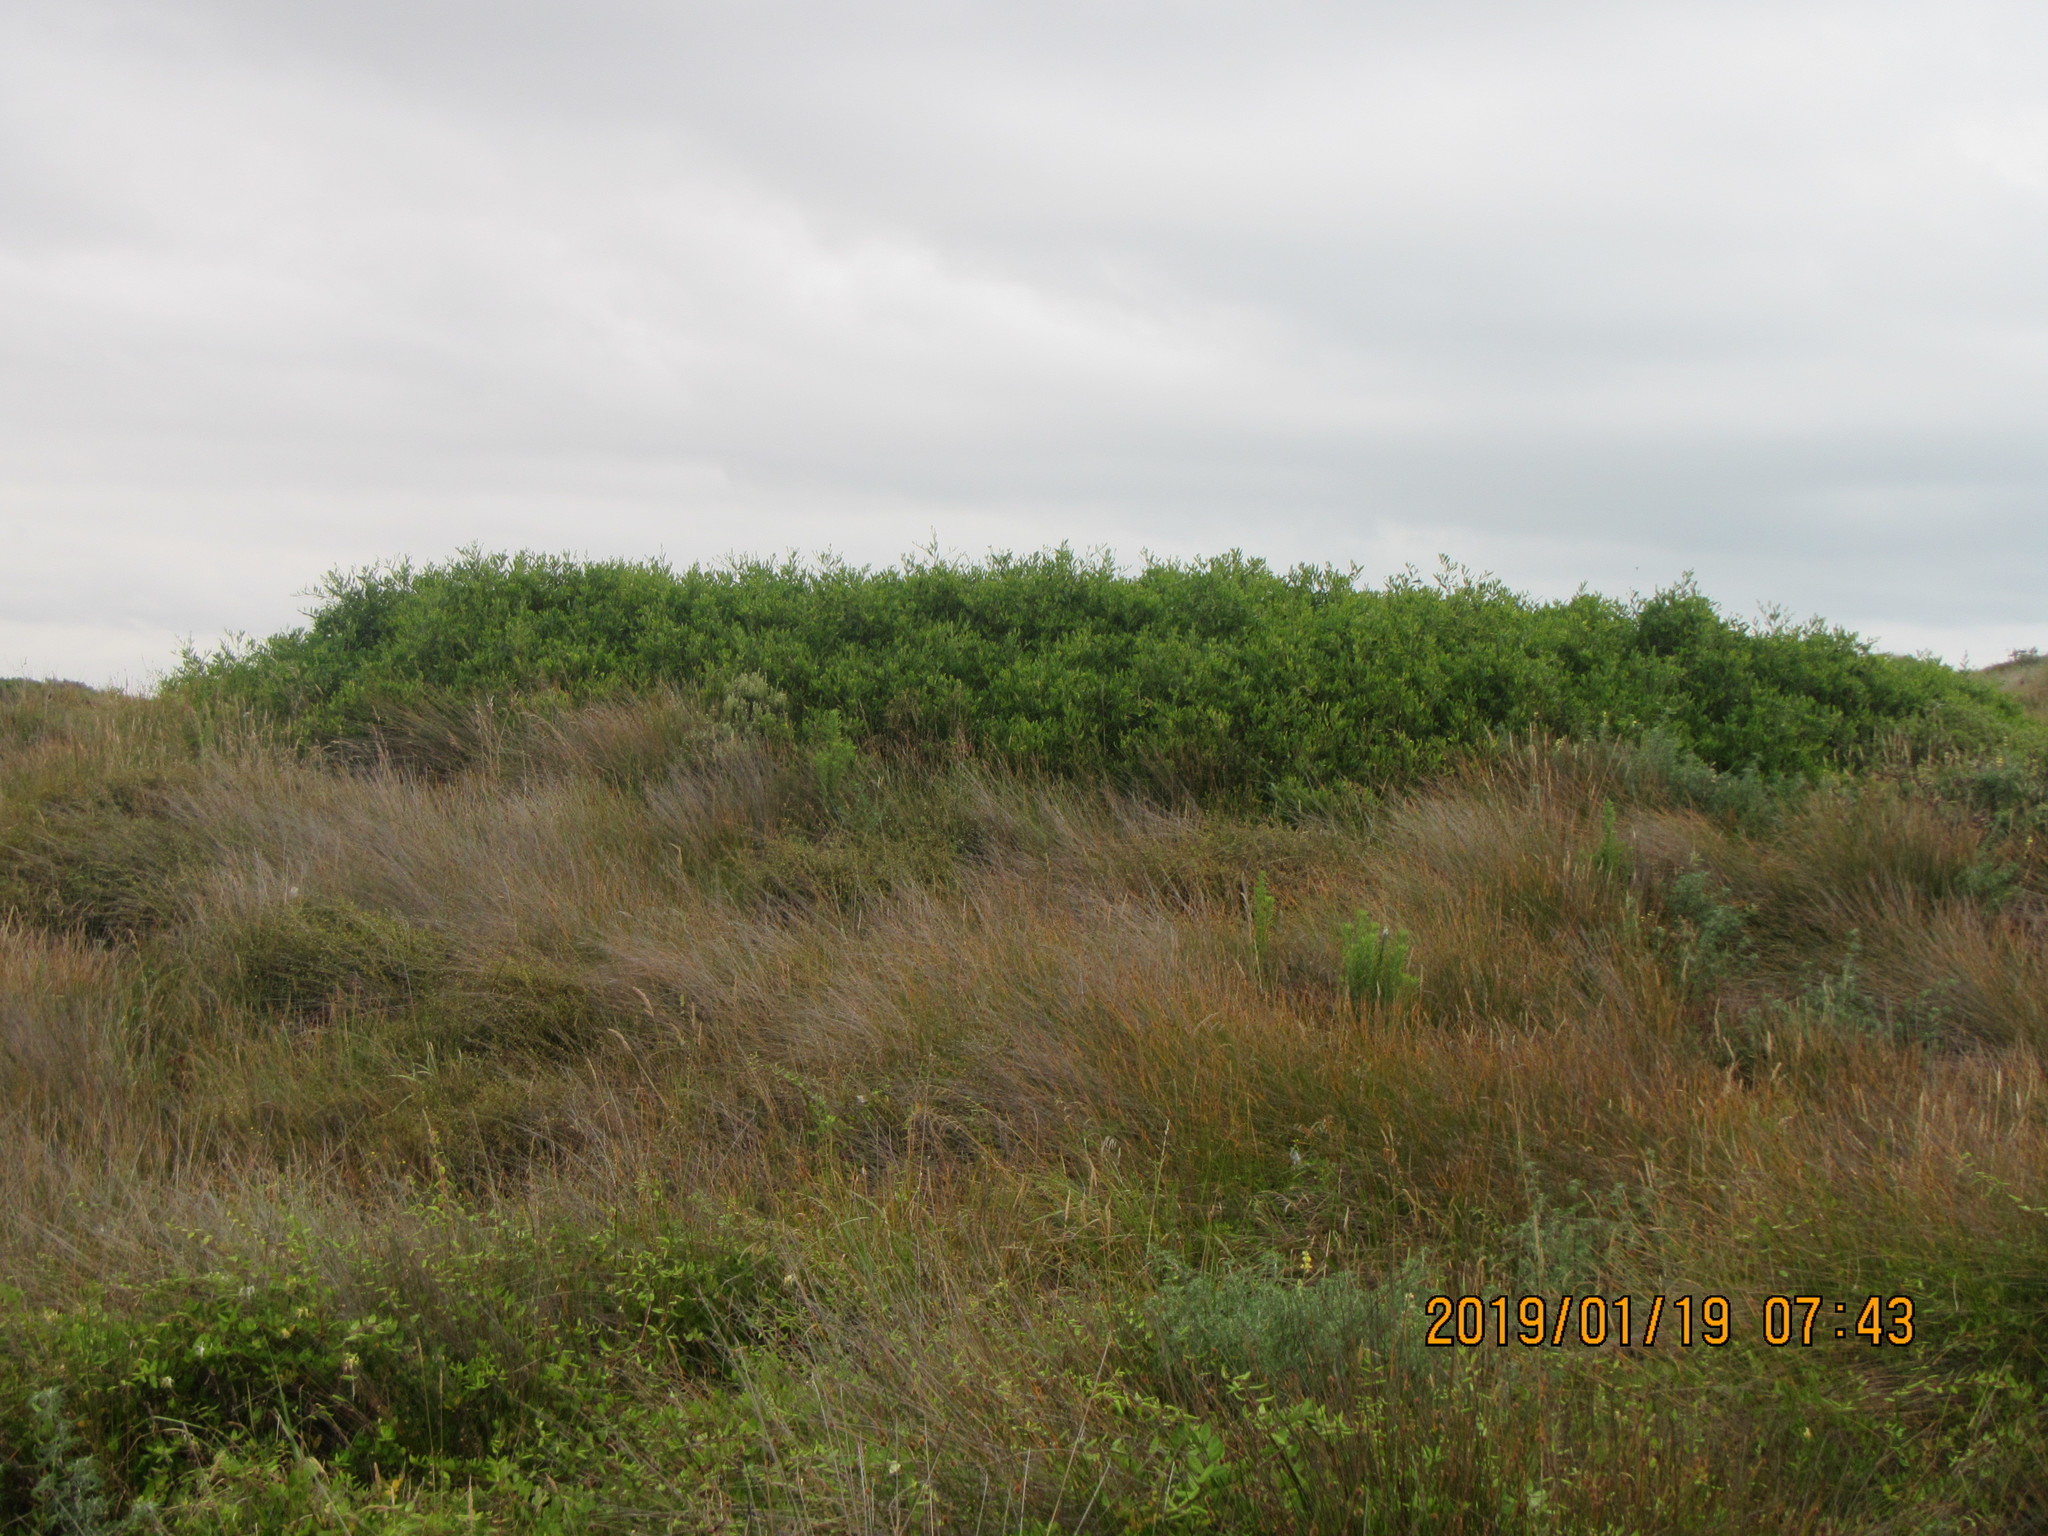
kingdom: Plantae
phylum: Tracheophyta
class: Magnoliopsida
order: Fabales
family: Fabaceae
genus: Acacia
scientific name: Acacia longifolia
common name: Sydney golden wattle
